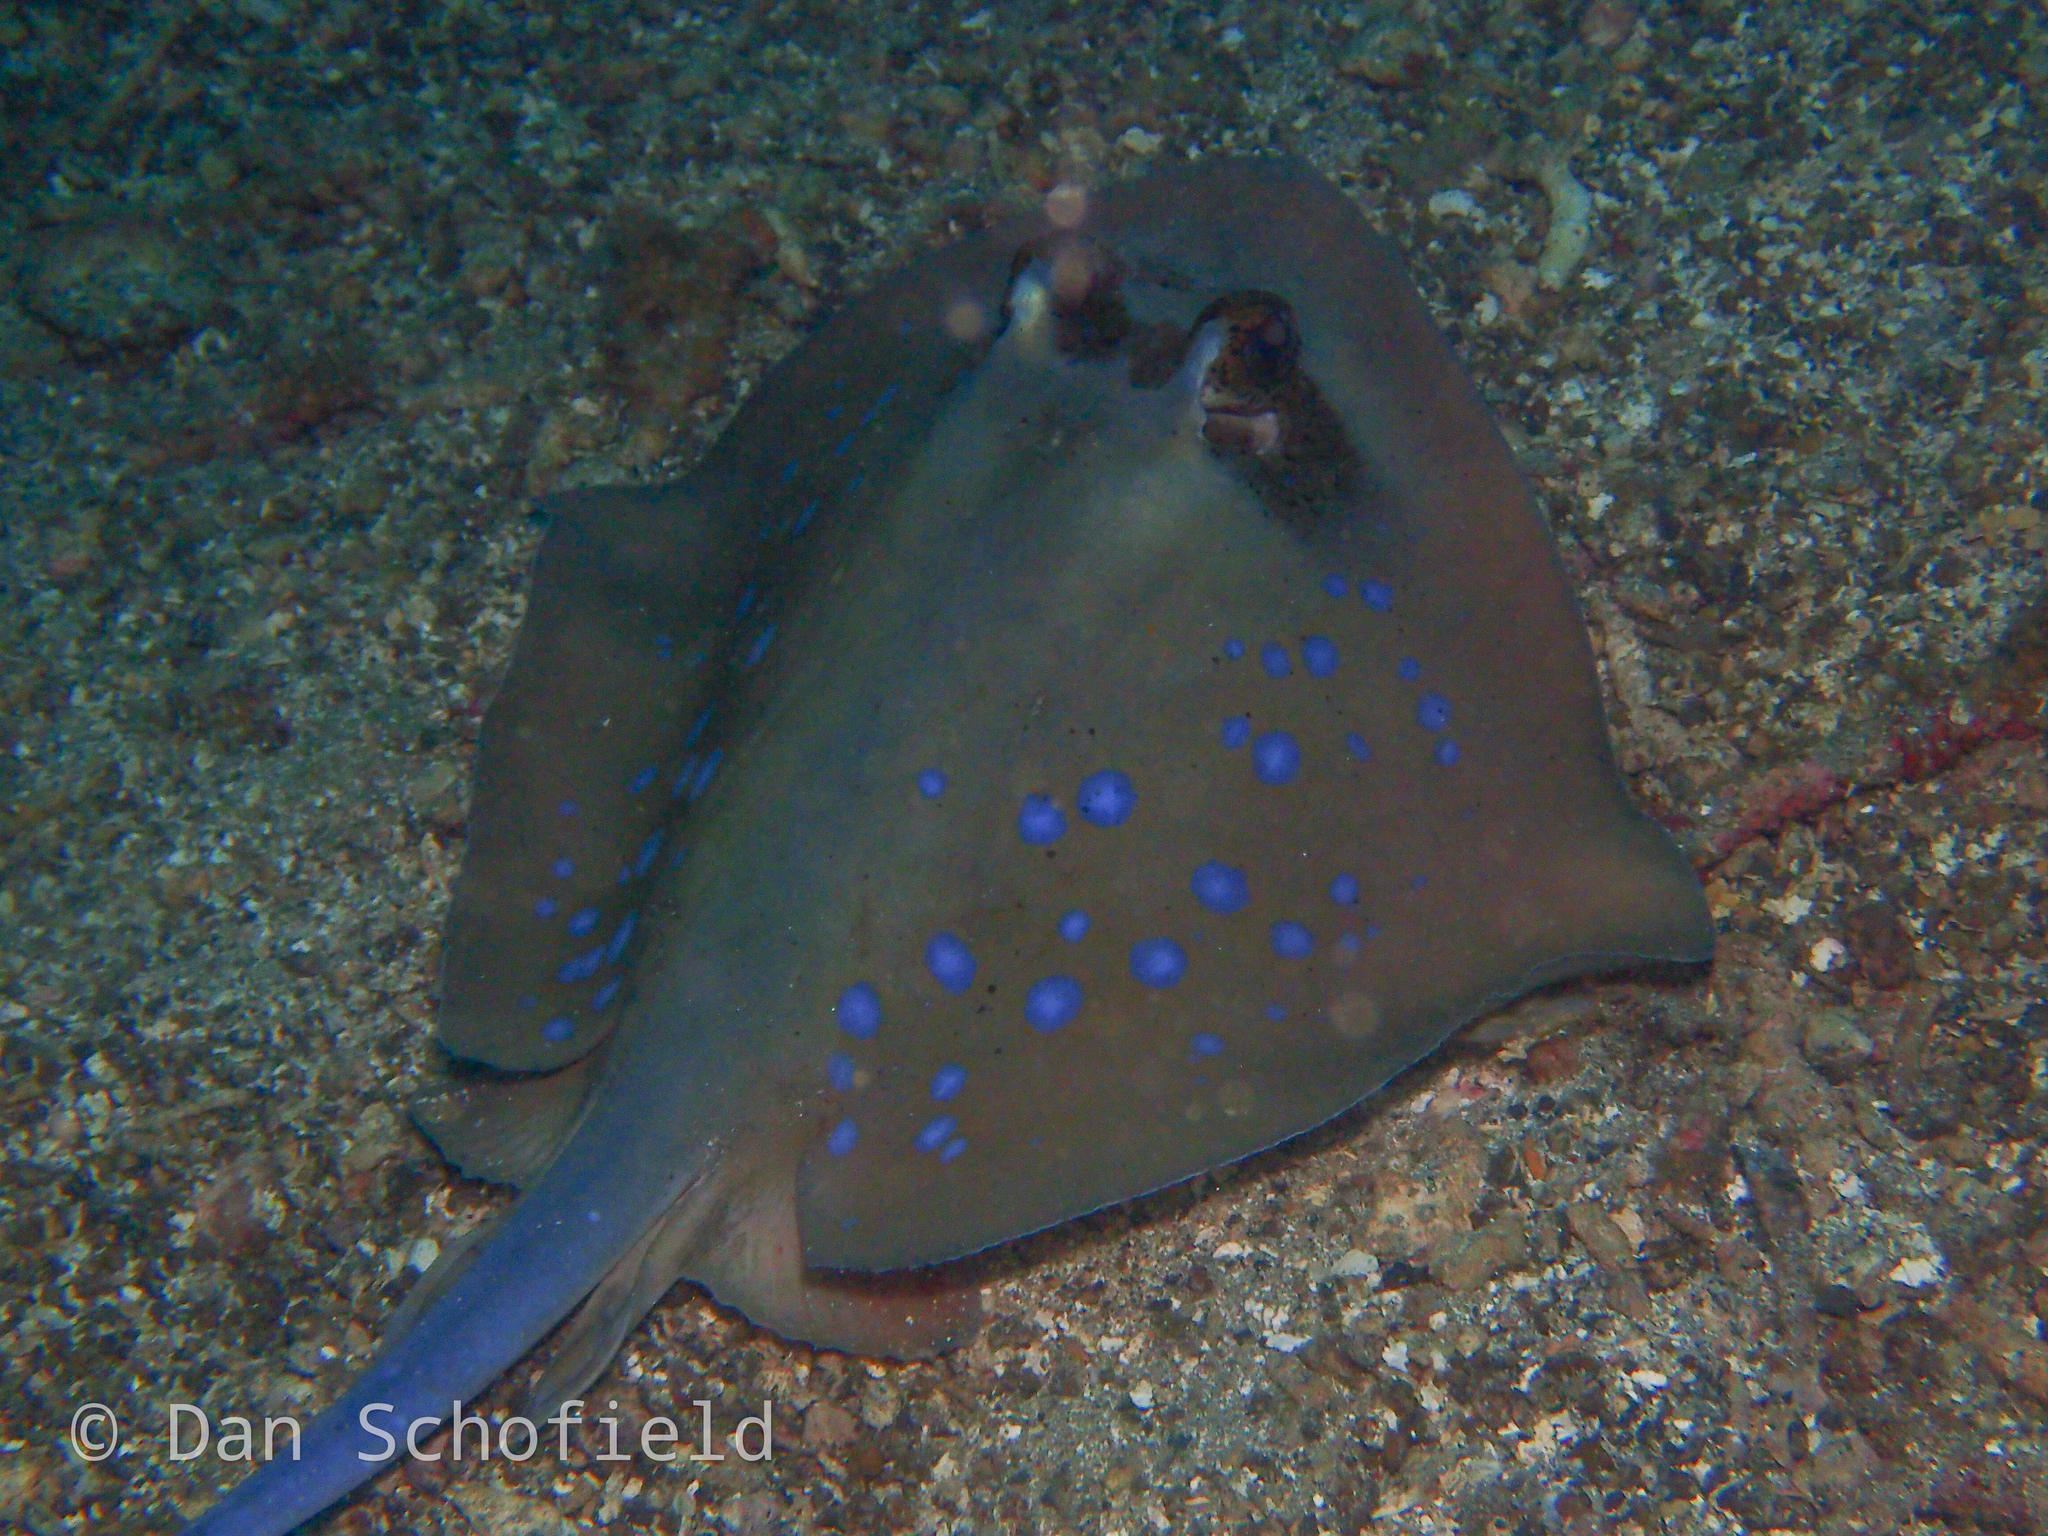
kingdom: Animalia
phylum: Chordata
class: Elasmobranchii
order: Myliobatiformes
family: Dasyatidae
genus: Neotrygon
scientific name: Neotrygon orientale
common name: Oriental bluespotted maskray
